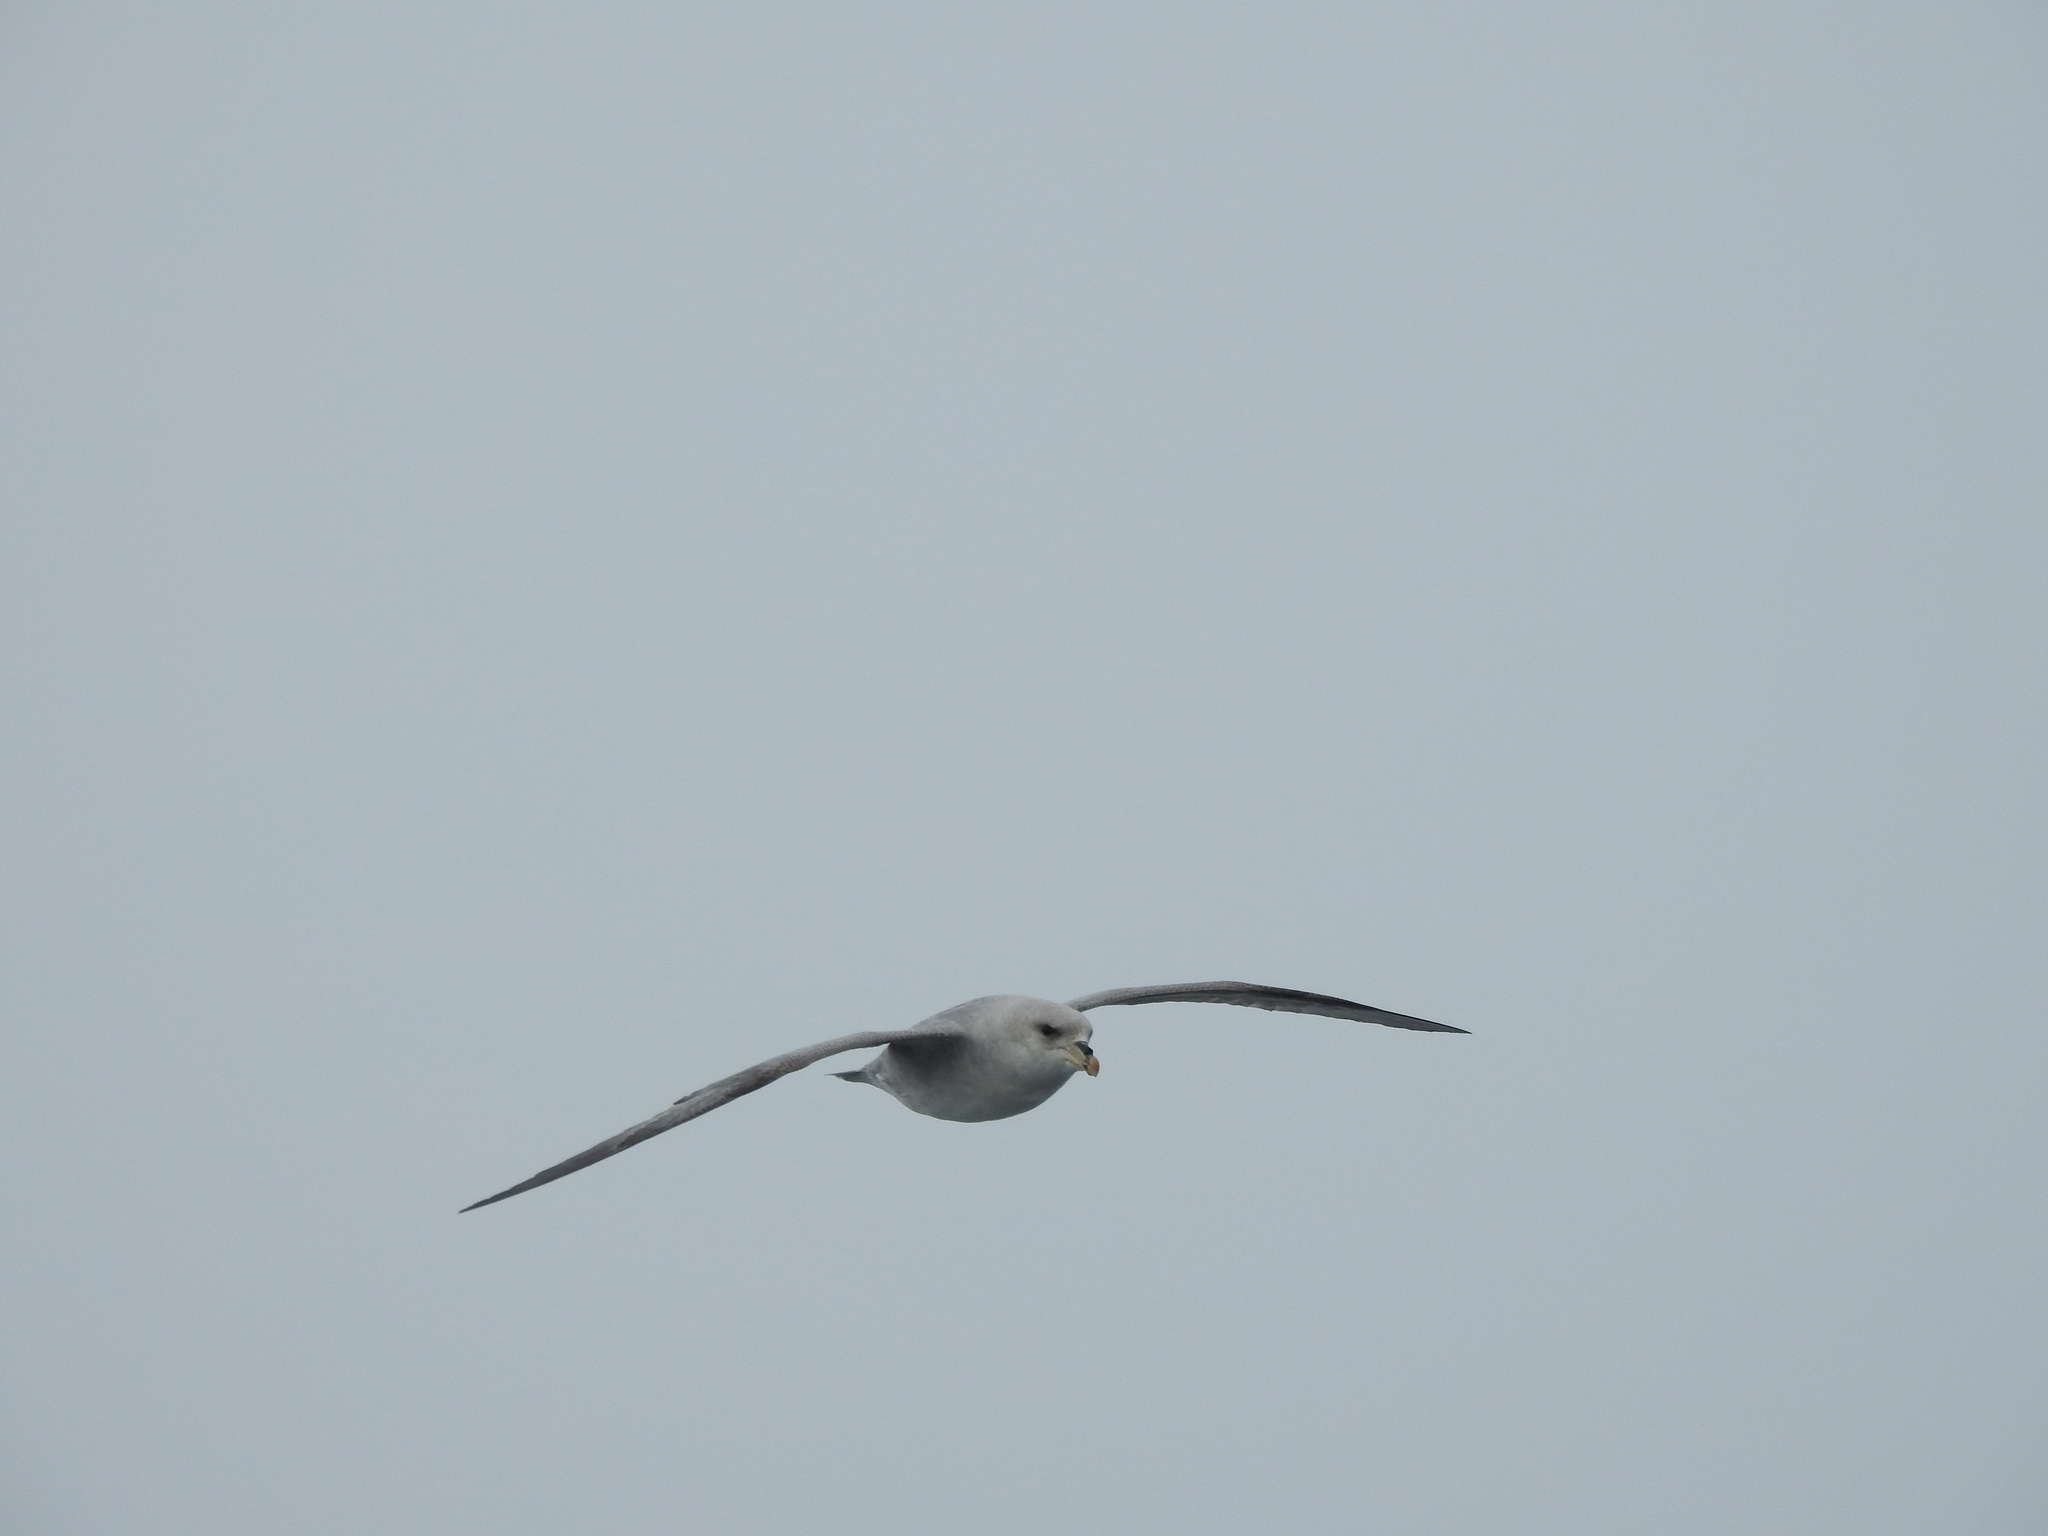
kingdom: Animalia
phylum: Chordata
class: Aves
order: Procellariiformes
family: Procellariidae
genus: Fulmarus
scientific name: Fulmarus glacialis
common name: Northern fulmar
